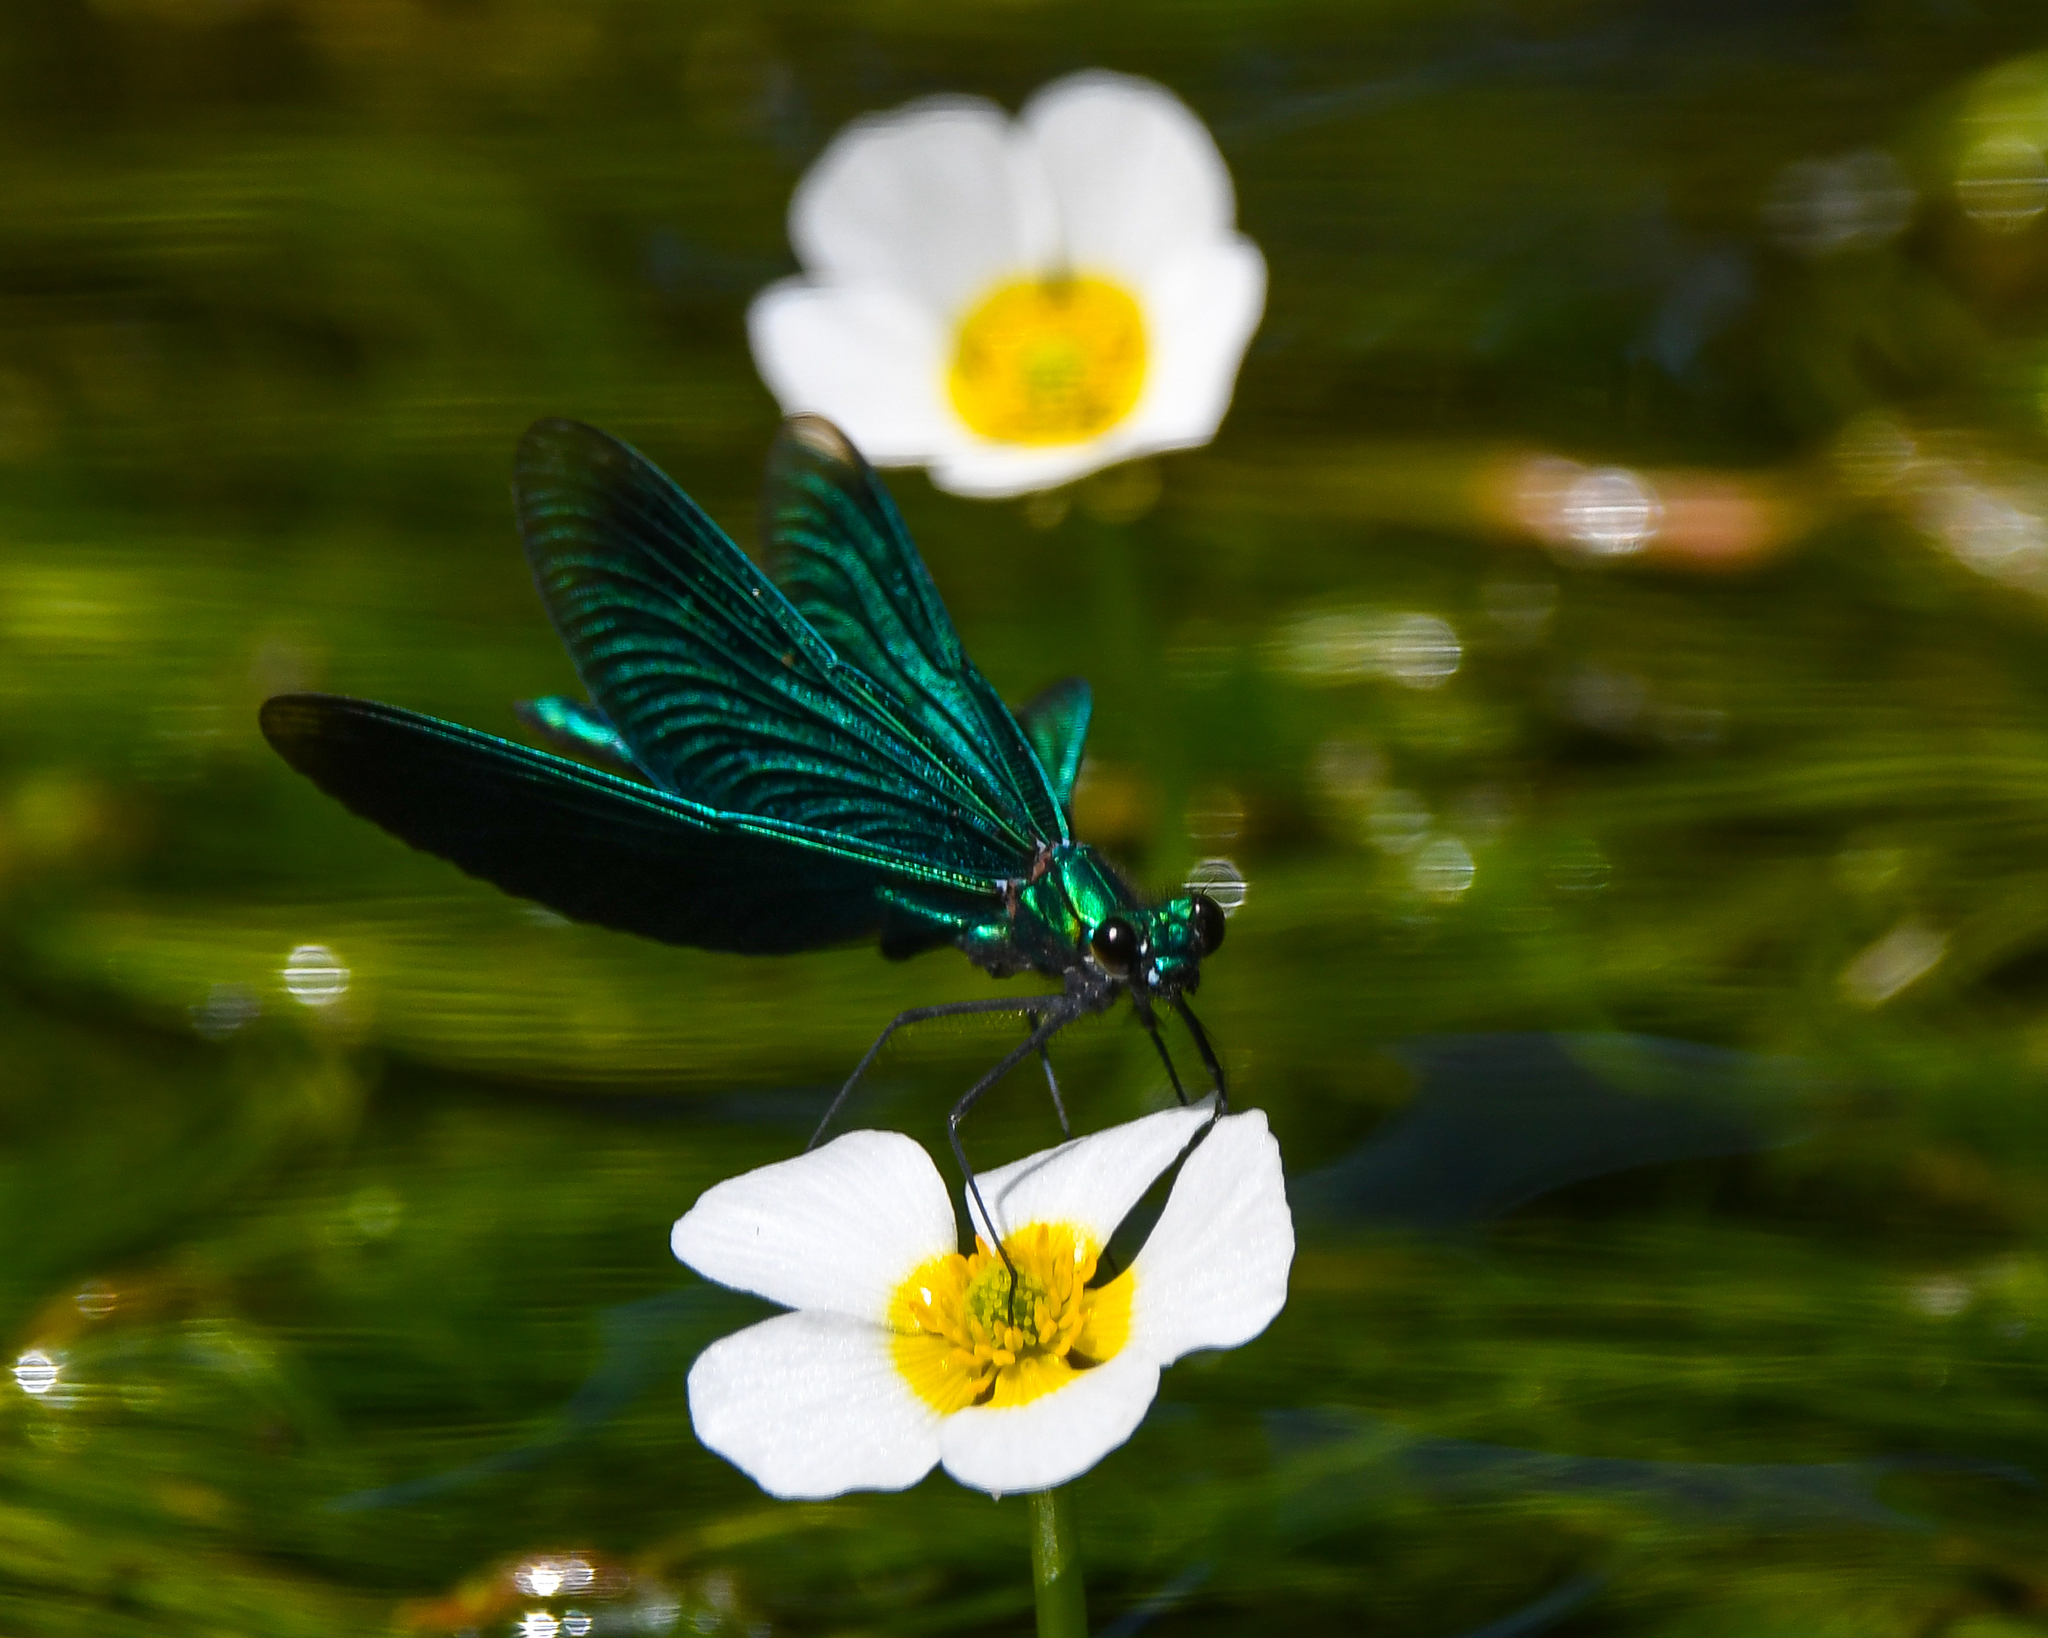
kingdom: Animalia
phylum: Arthropoda
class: Insecta
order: Odonata
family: Calopterygidae
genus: Calopteryx
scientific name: Calopteryx virgo
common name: Beautiful demoiselle
